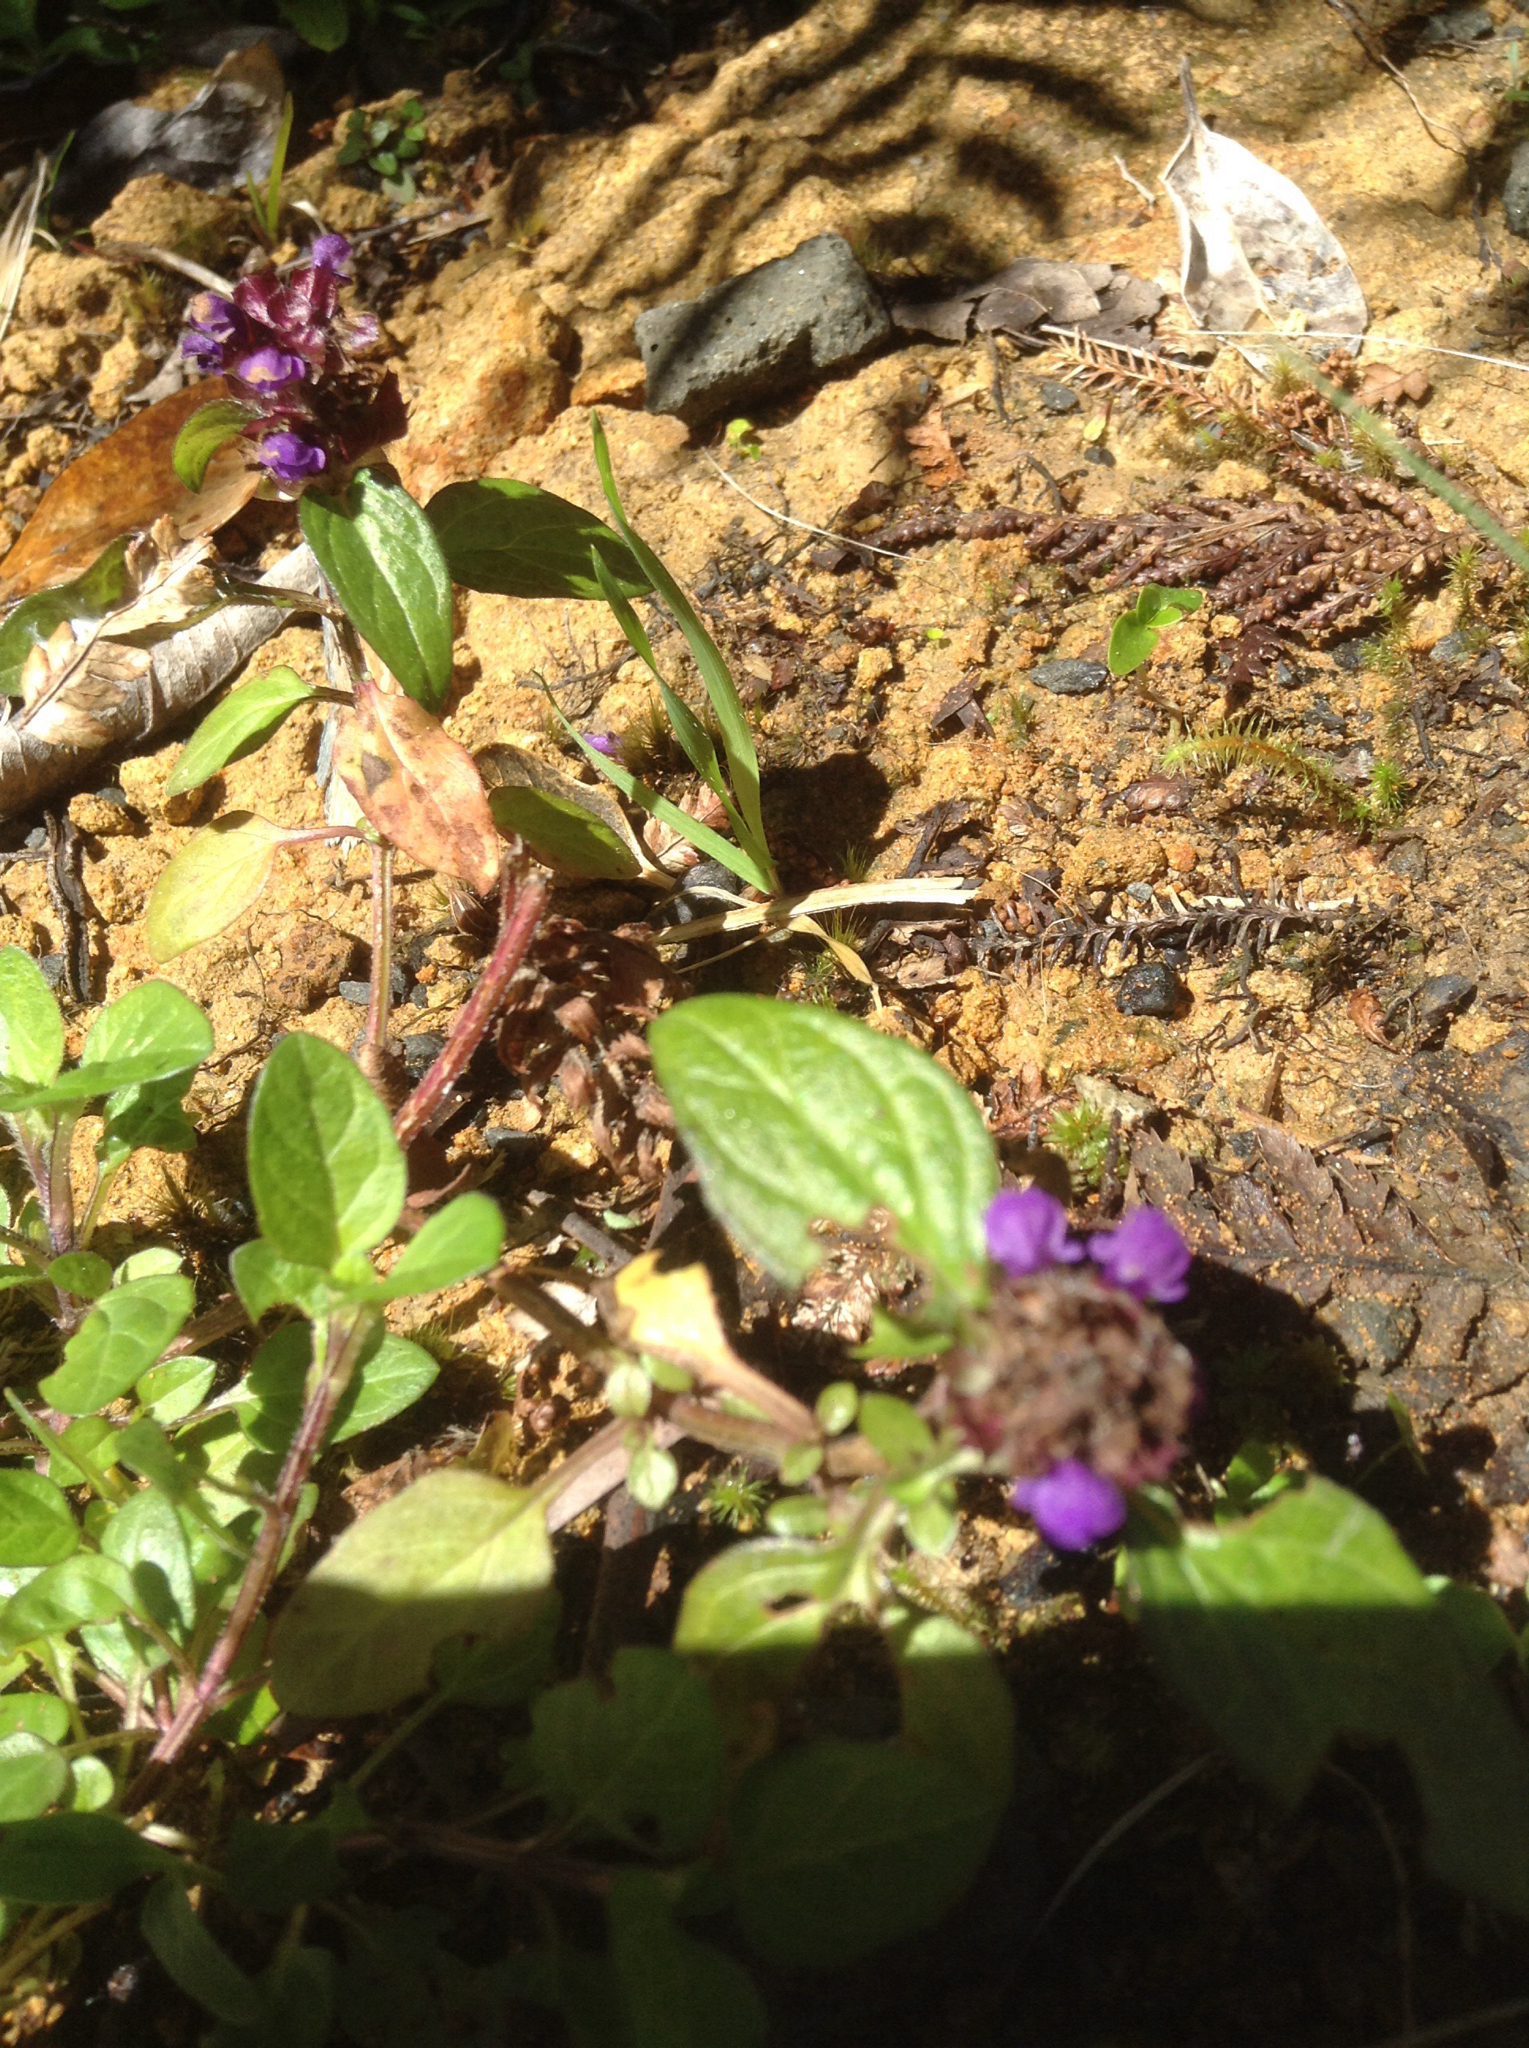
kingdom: Plantae
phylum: Tracheophyta
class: Magnoliopsida
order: Lamiales
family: Lamiaceae
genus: Prunella
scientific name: Prunella vulgaris
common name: Heal-all
